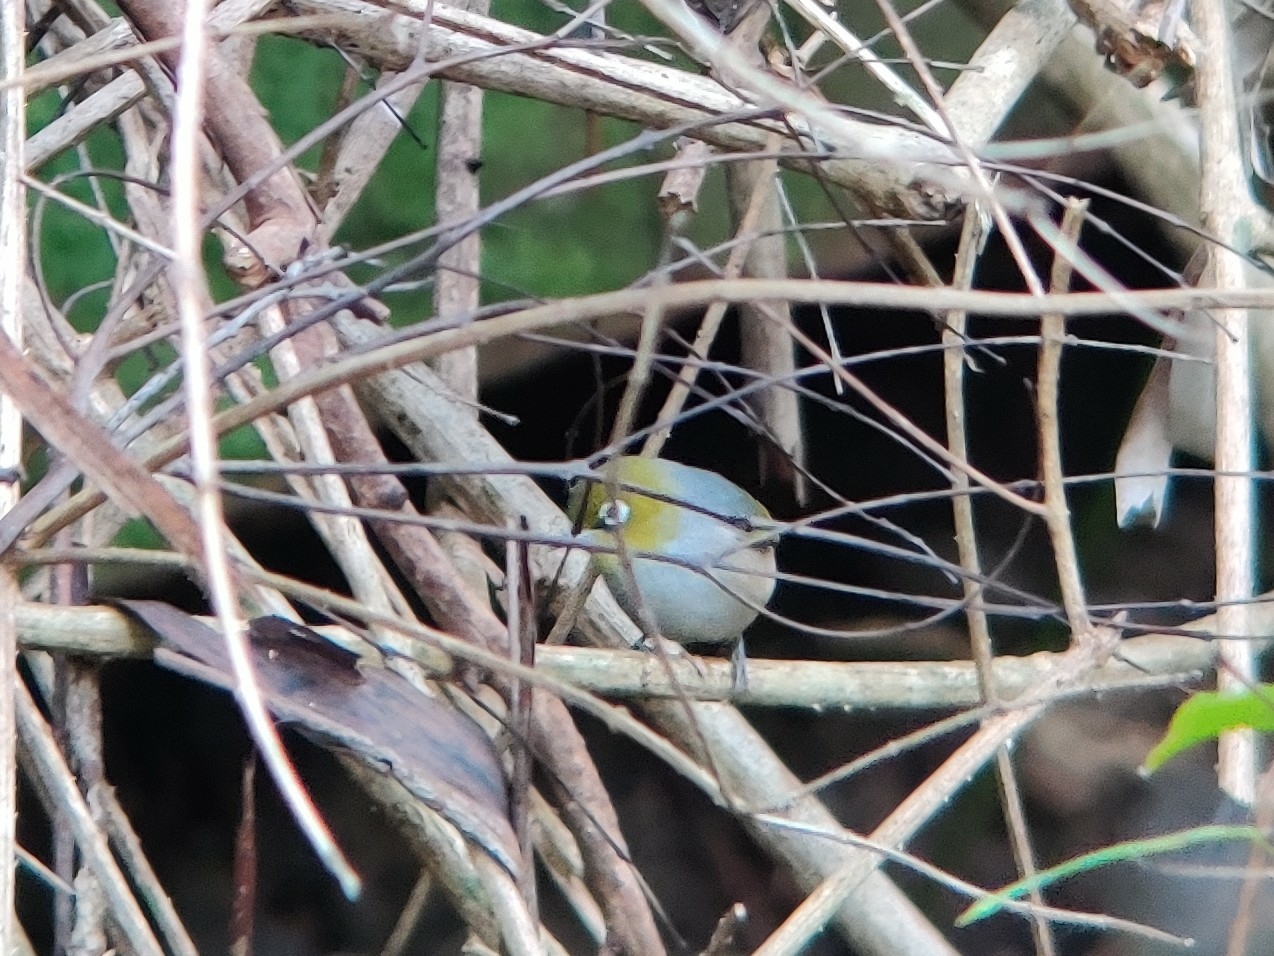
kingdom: Animalia
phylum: Chordata
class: Aves
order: Passeriformes
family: Zosteropidae
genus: Zosterops
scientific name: Zosterops lateralis
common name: Silvereye
